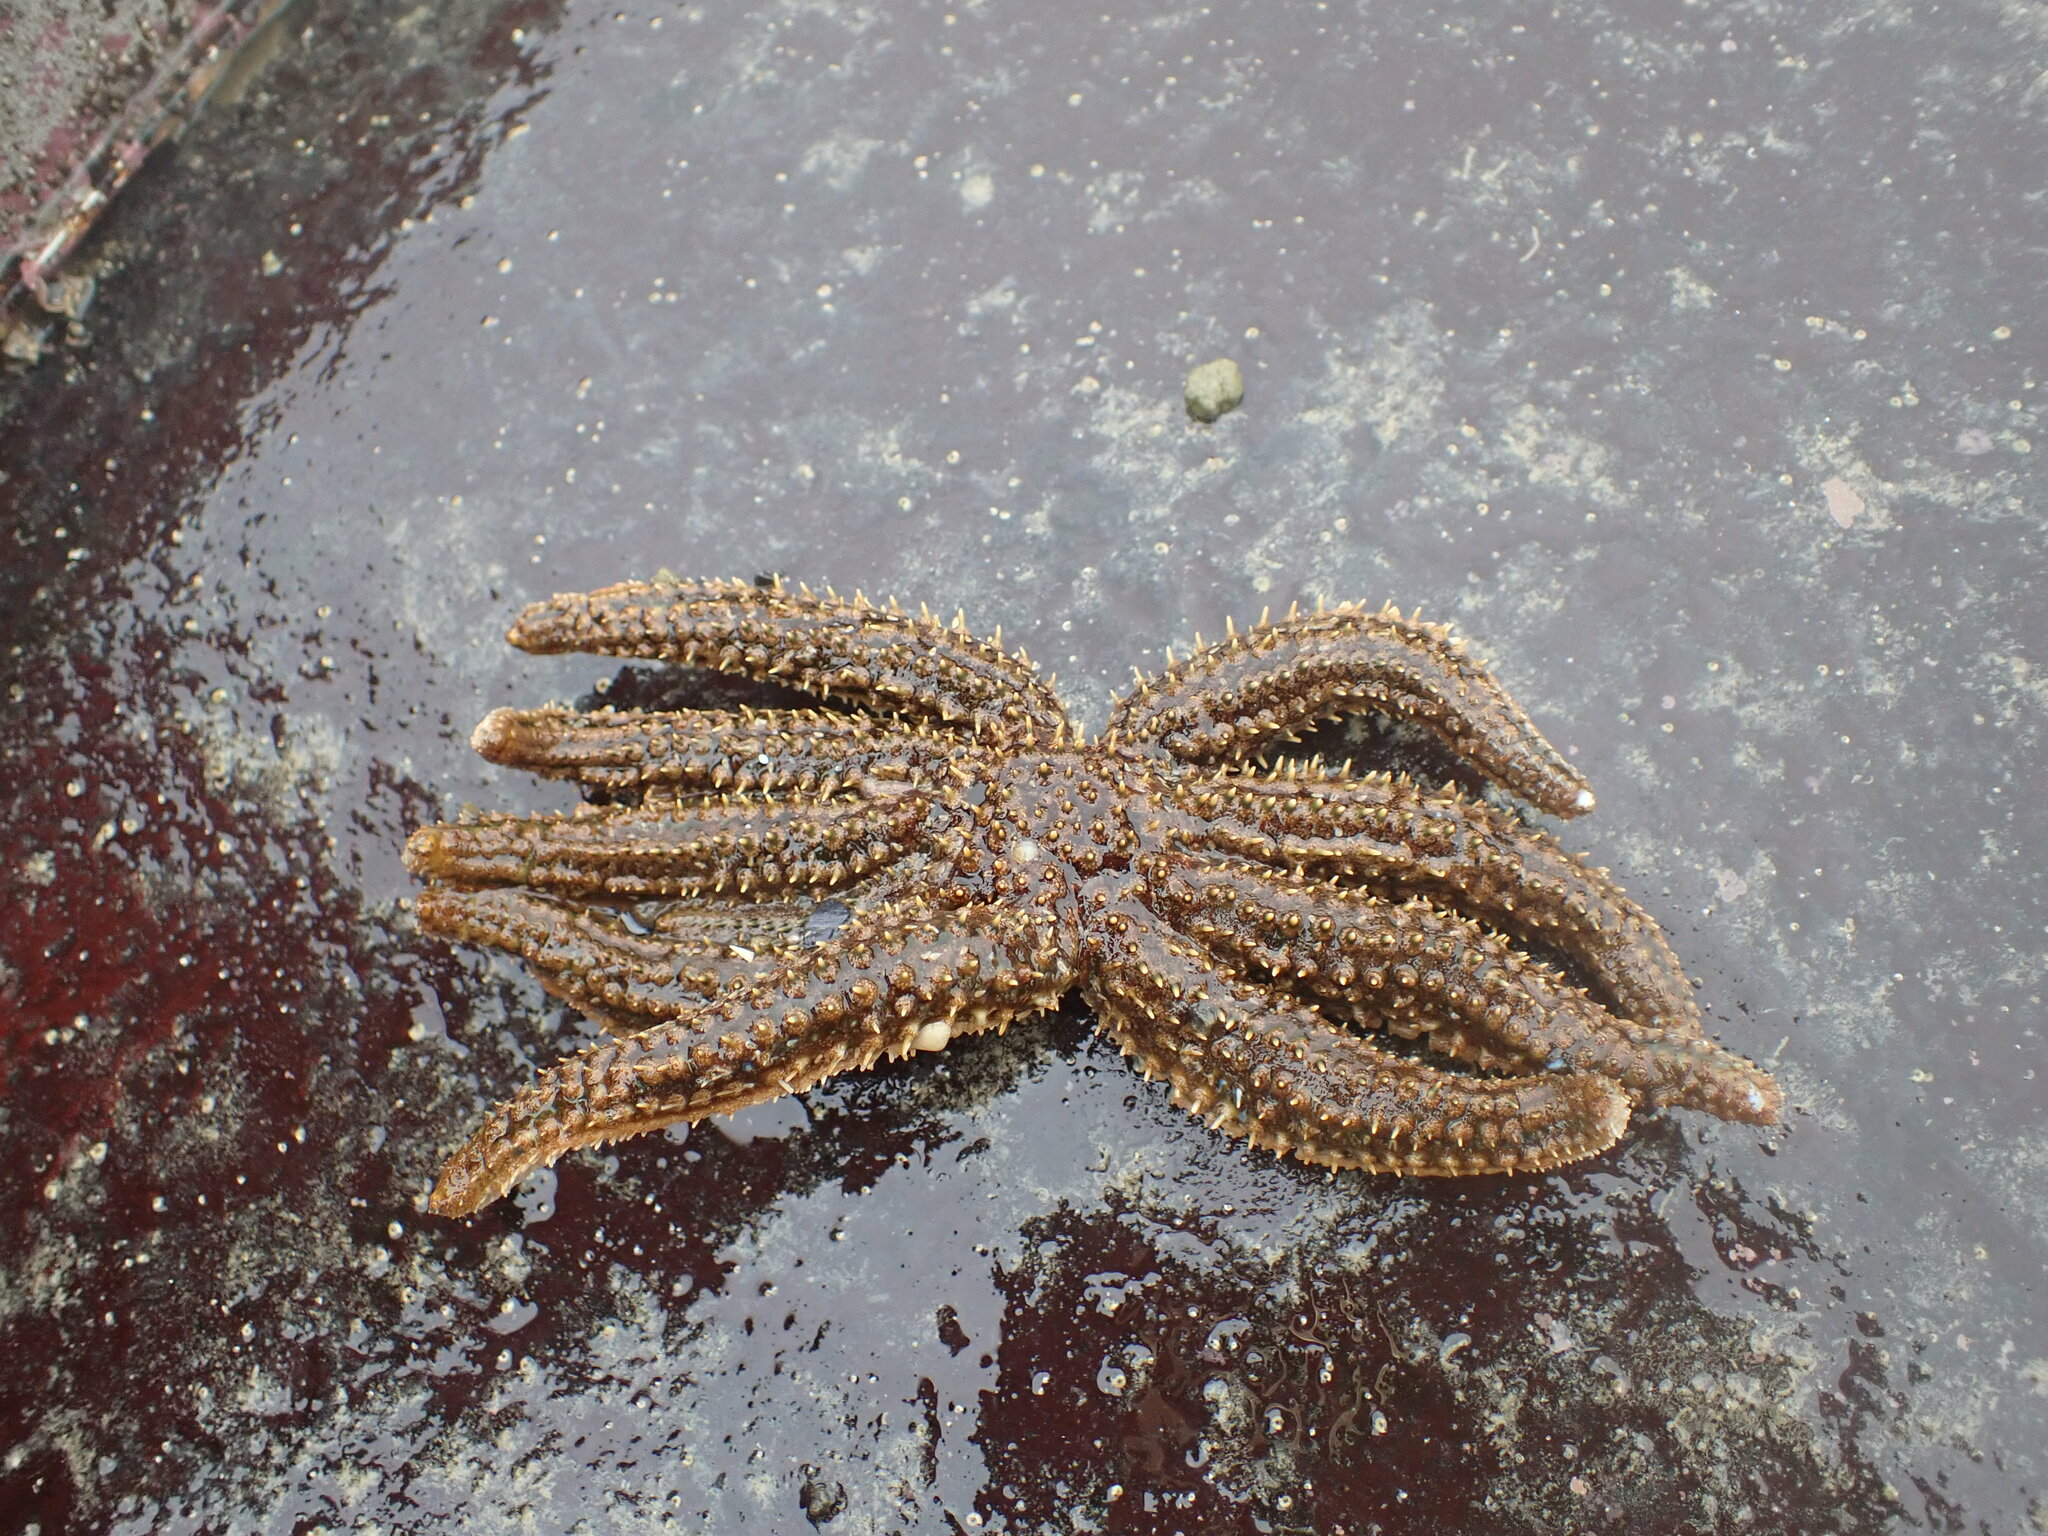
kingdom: Animalia
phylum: Echinodermata
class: Asteroidea
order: Forcipulatida
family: Asteriidae
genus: Coscinasterias
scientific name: Coscinasterias muricata
